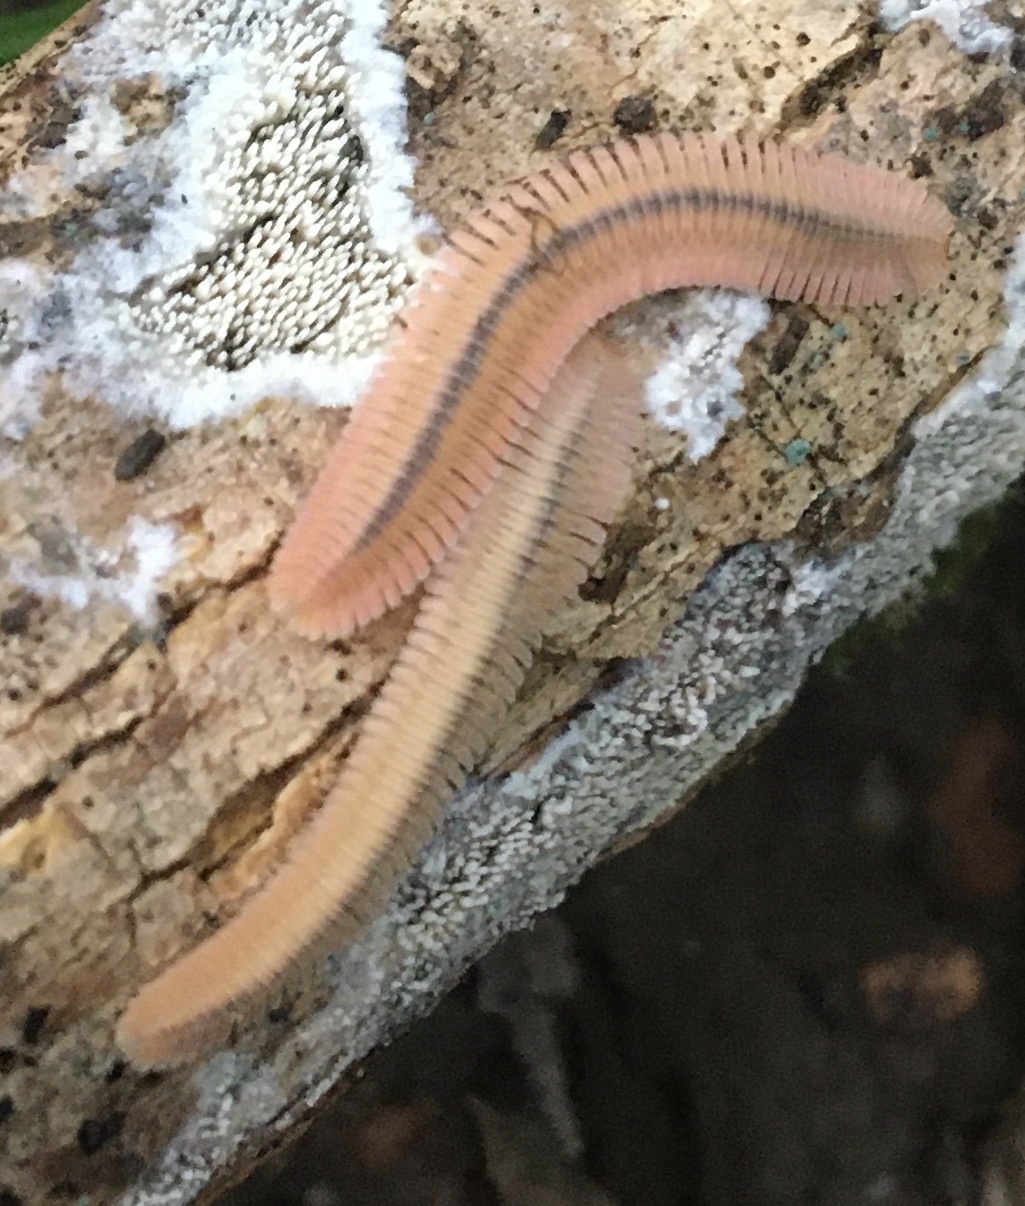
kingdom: Animalia
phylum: Arthropoda
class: Diplopoda
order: Platydesmida
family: Andrognathidae
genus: Brachycybe
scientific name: Brachycybe lecontii
